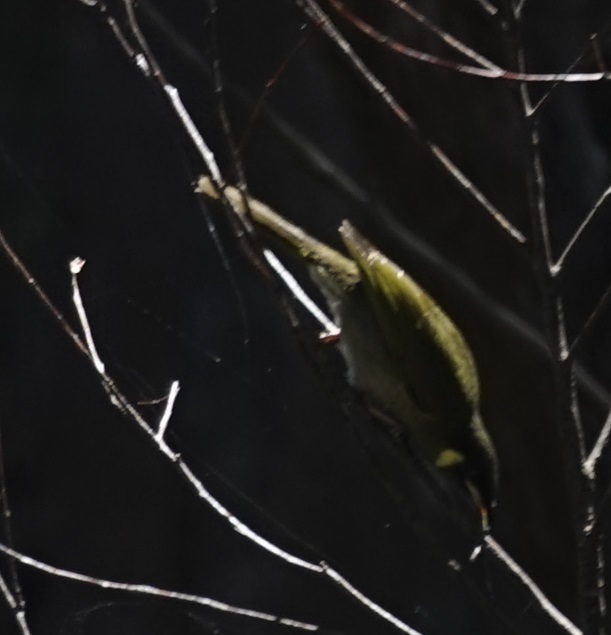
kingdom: Animalia
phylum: Chordata
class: Aves
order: Passeriformes
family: Meliphagidae
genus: Meliphaga
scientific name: Meliphaga lewinii
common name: Lewin's honeyeater
